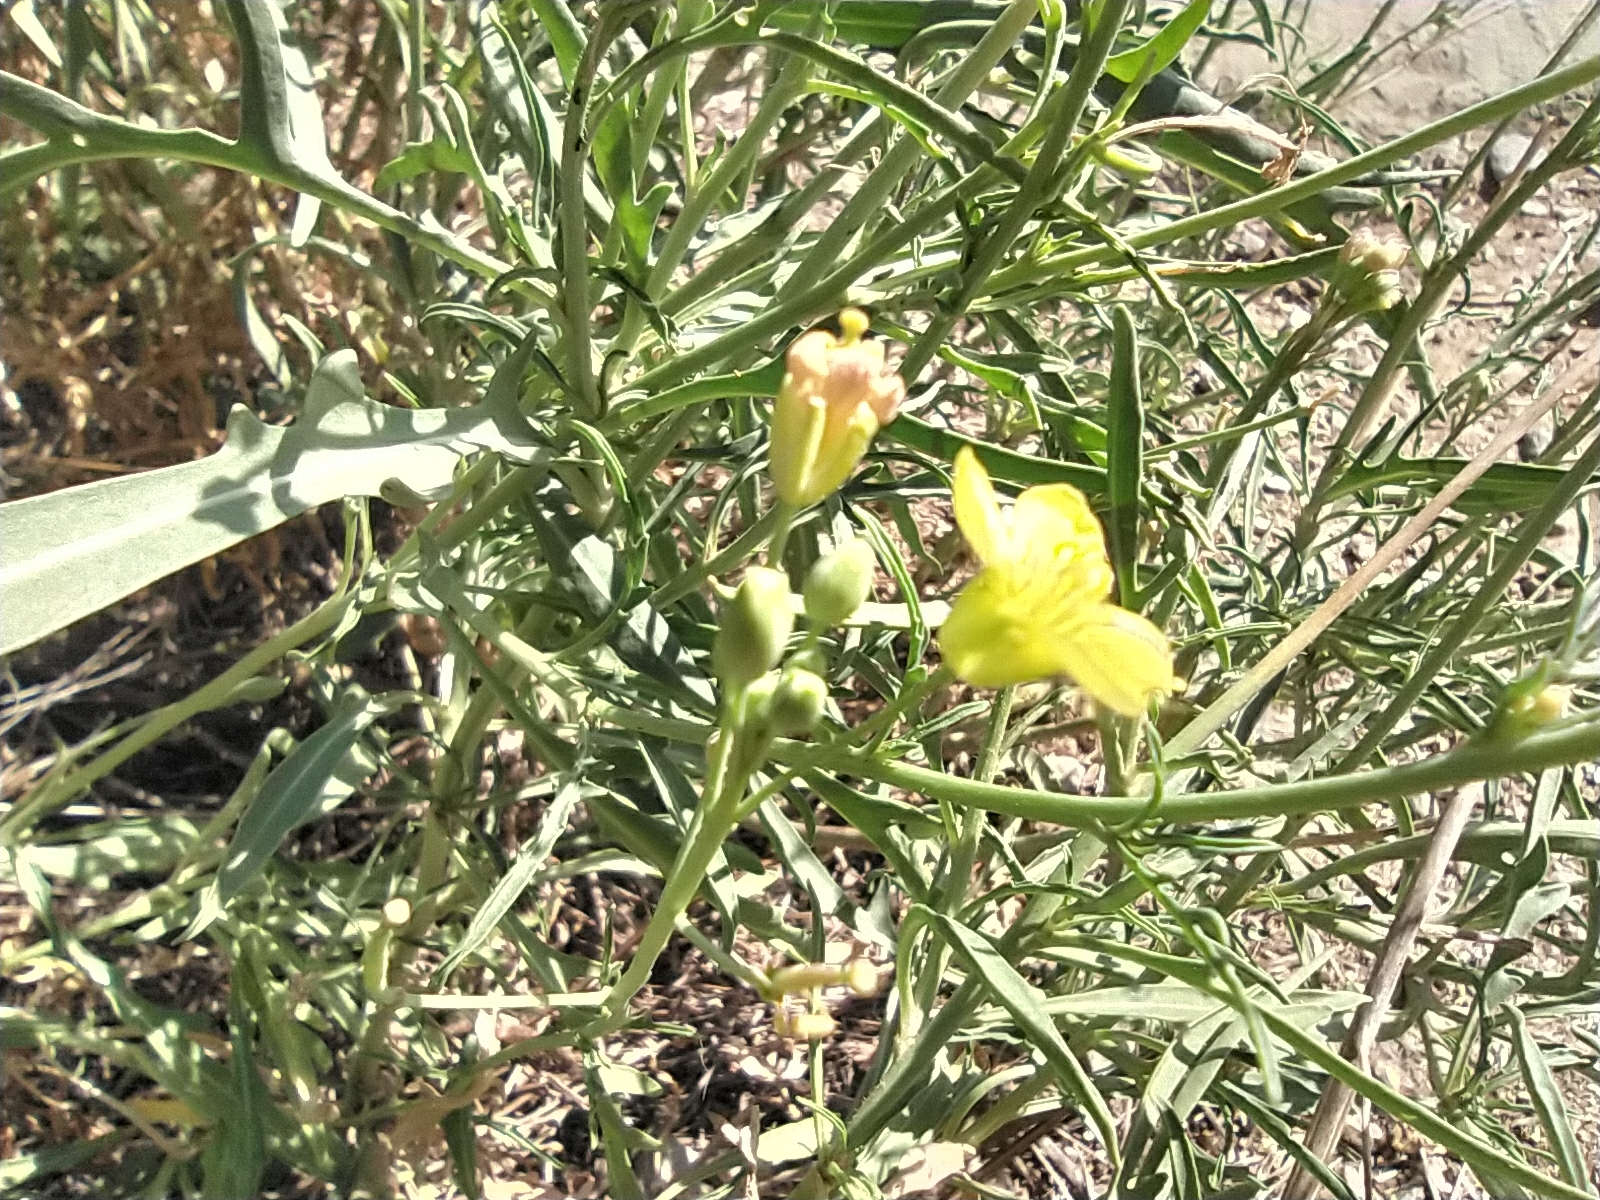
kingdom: Plantae
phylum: Tracheophyta
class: Magnoliopsida
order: Brassicales
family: Brassicaceae
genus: Diplotaxis
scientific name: Diplotaxis tenuifolia
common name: Perennial wall-rocket
